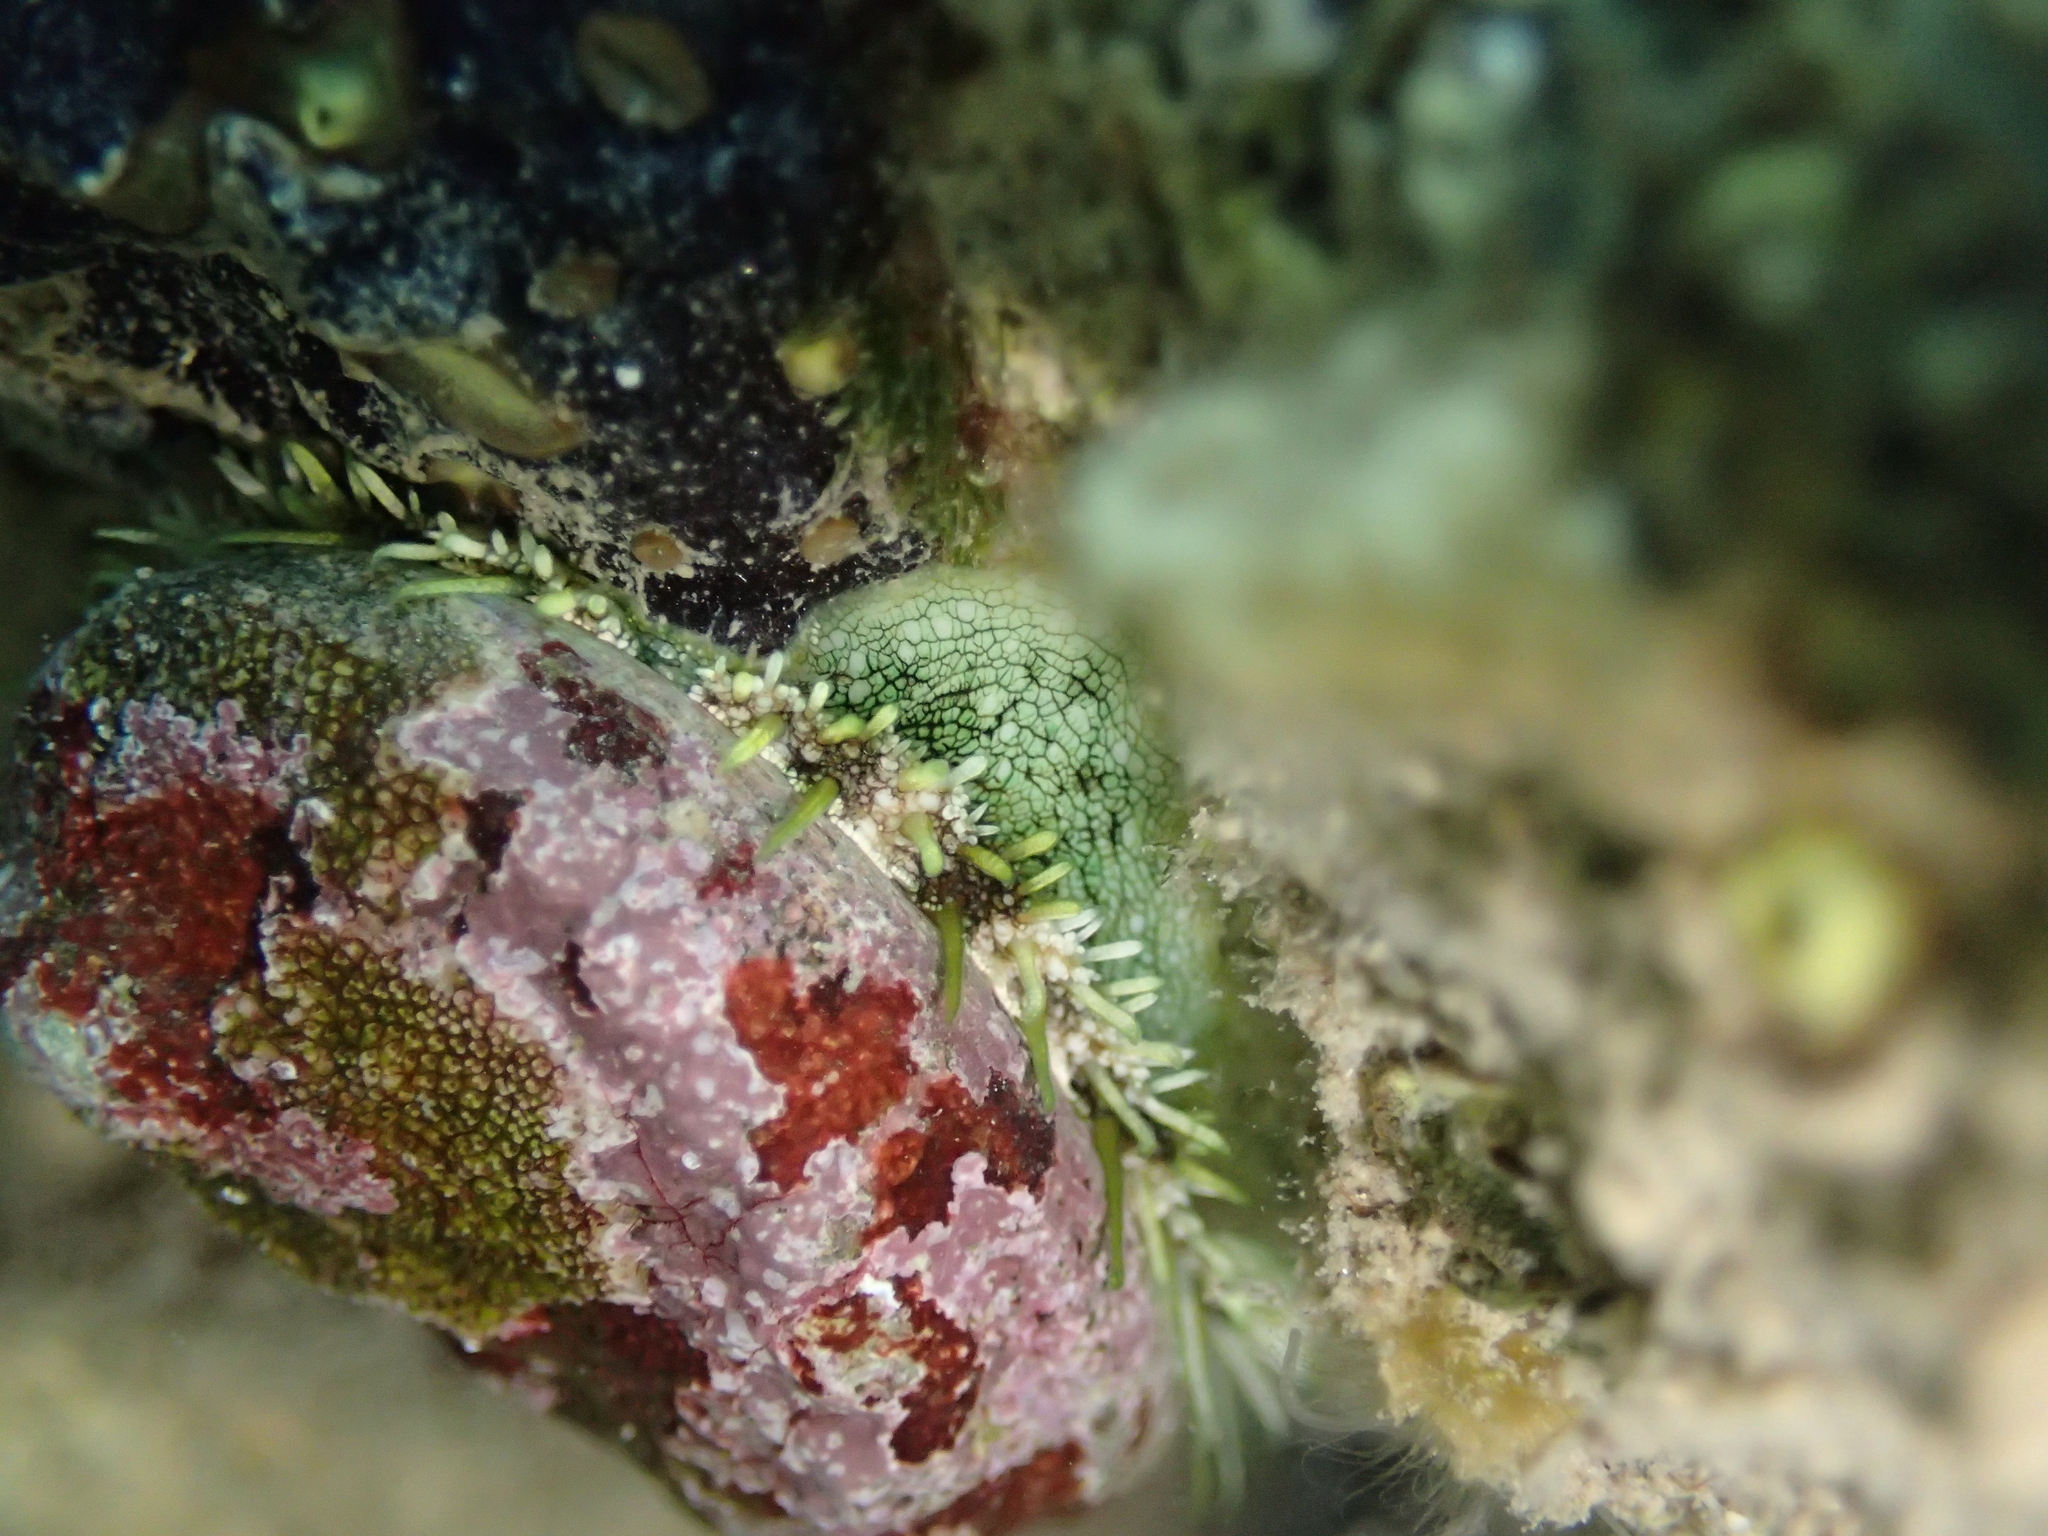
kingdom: Animalia
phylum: Mollusca
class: Gastropoda
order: Lepetellida
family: Haliotidae
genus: Haliotis
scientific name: Haliotis tuberculata
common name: Green ormer
